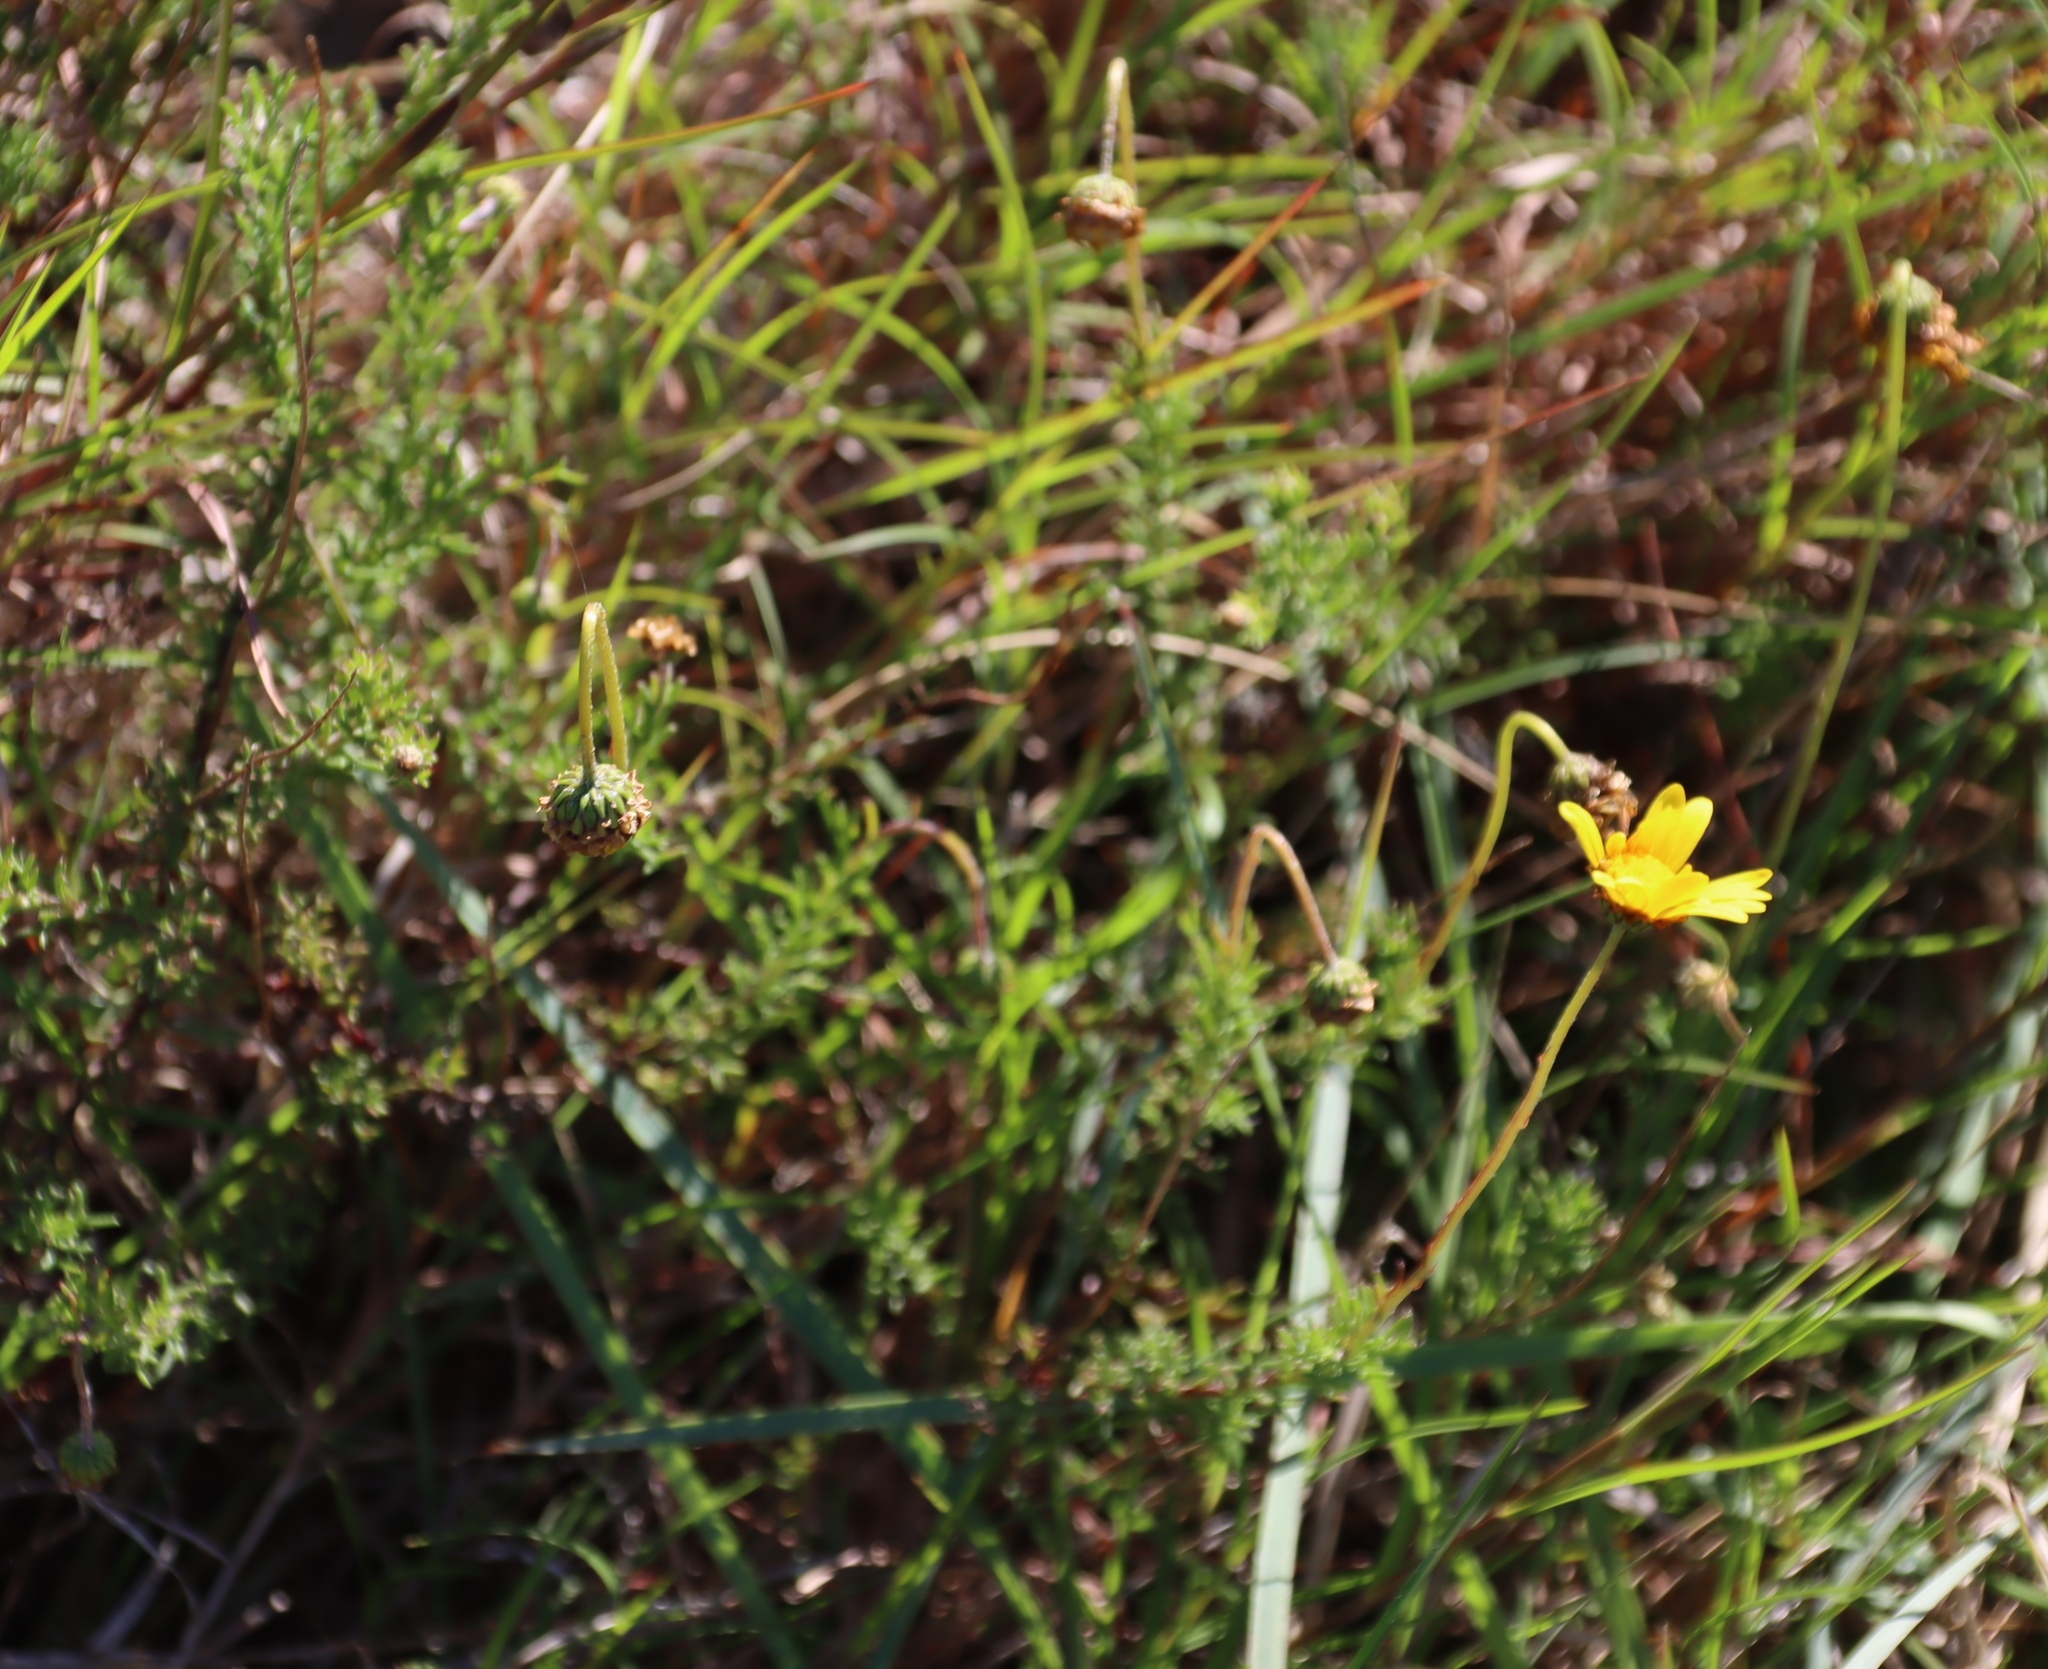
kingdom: Plantae
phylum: Tracheophyta
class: Magnoliopsida
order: Asterales
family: Asteraceae
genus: Ursinia
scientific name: Ursinia trifida
